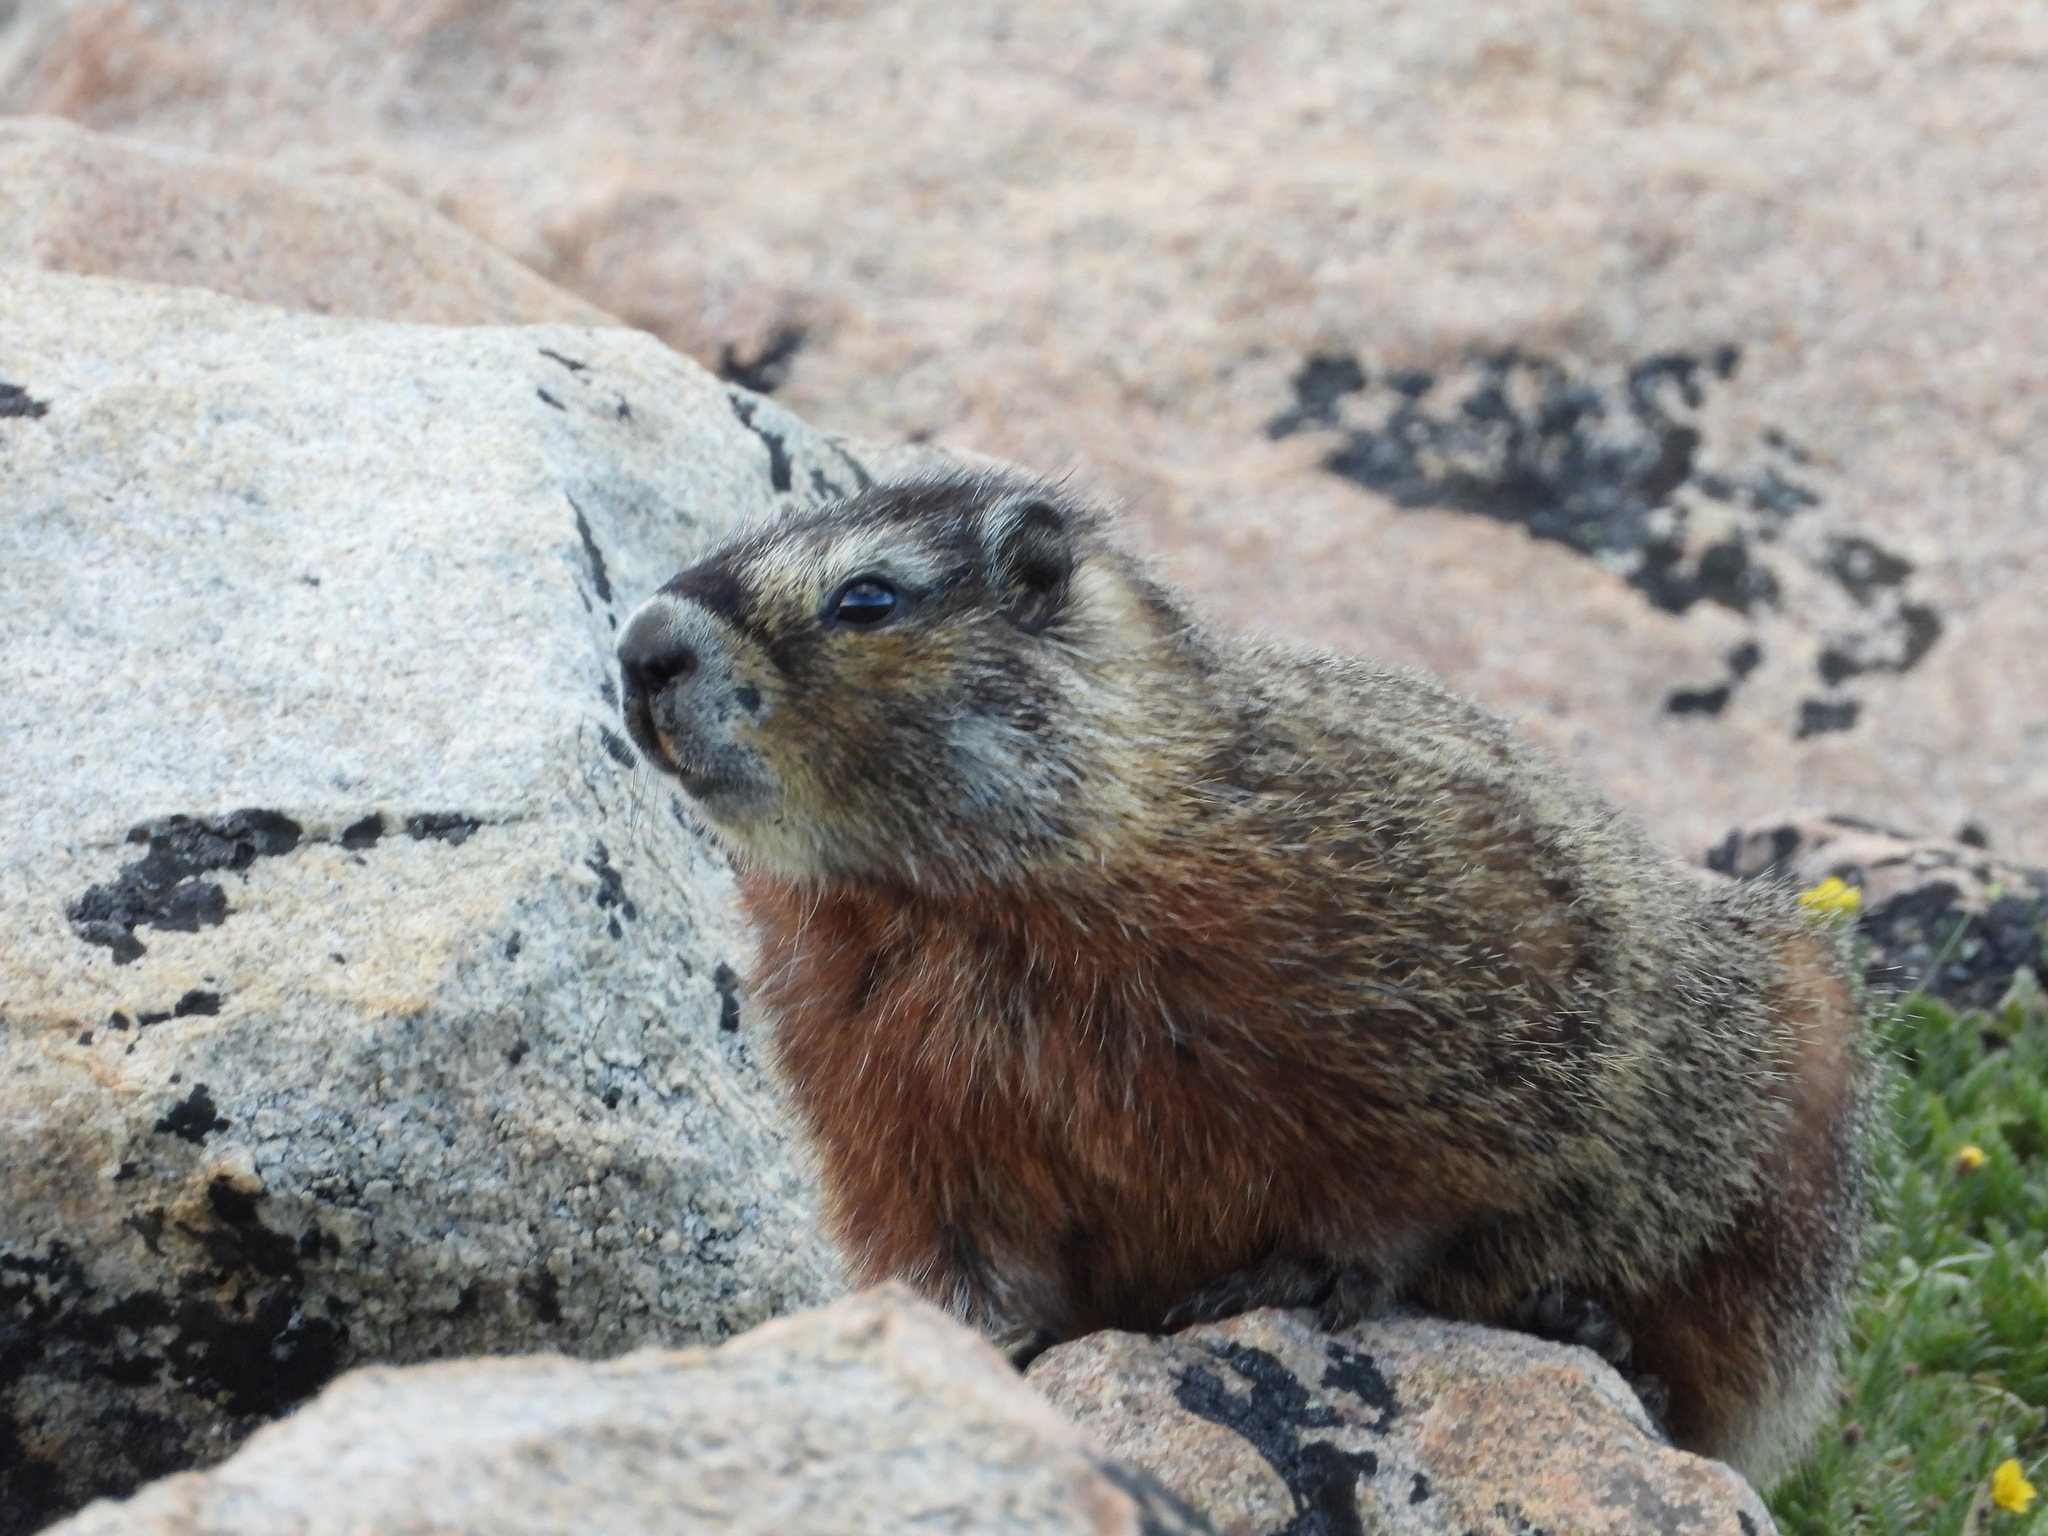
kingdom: Animalia
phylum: Chordata
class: Mammalia
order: Rodentia
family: Sciuridae
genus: Marmota
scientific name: Marmota flaviventris
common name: Yellow-bellied marmot
